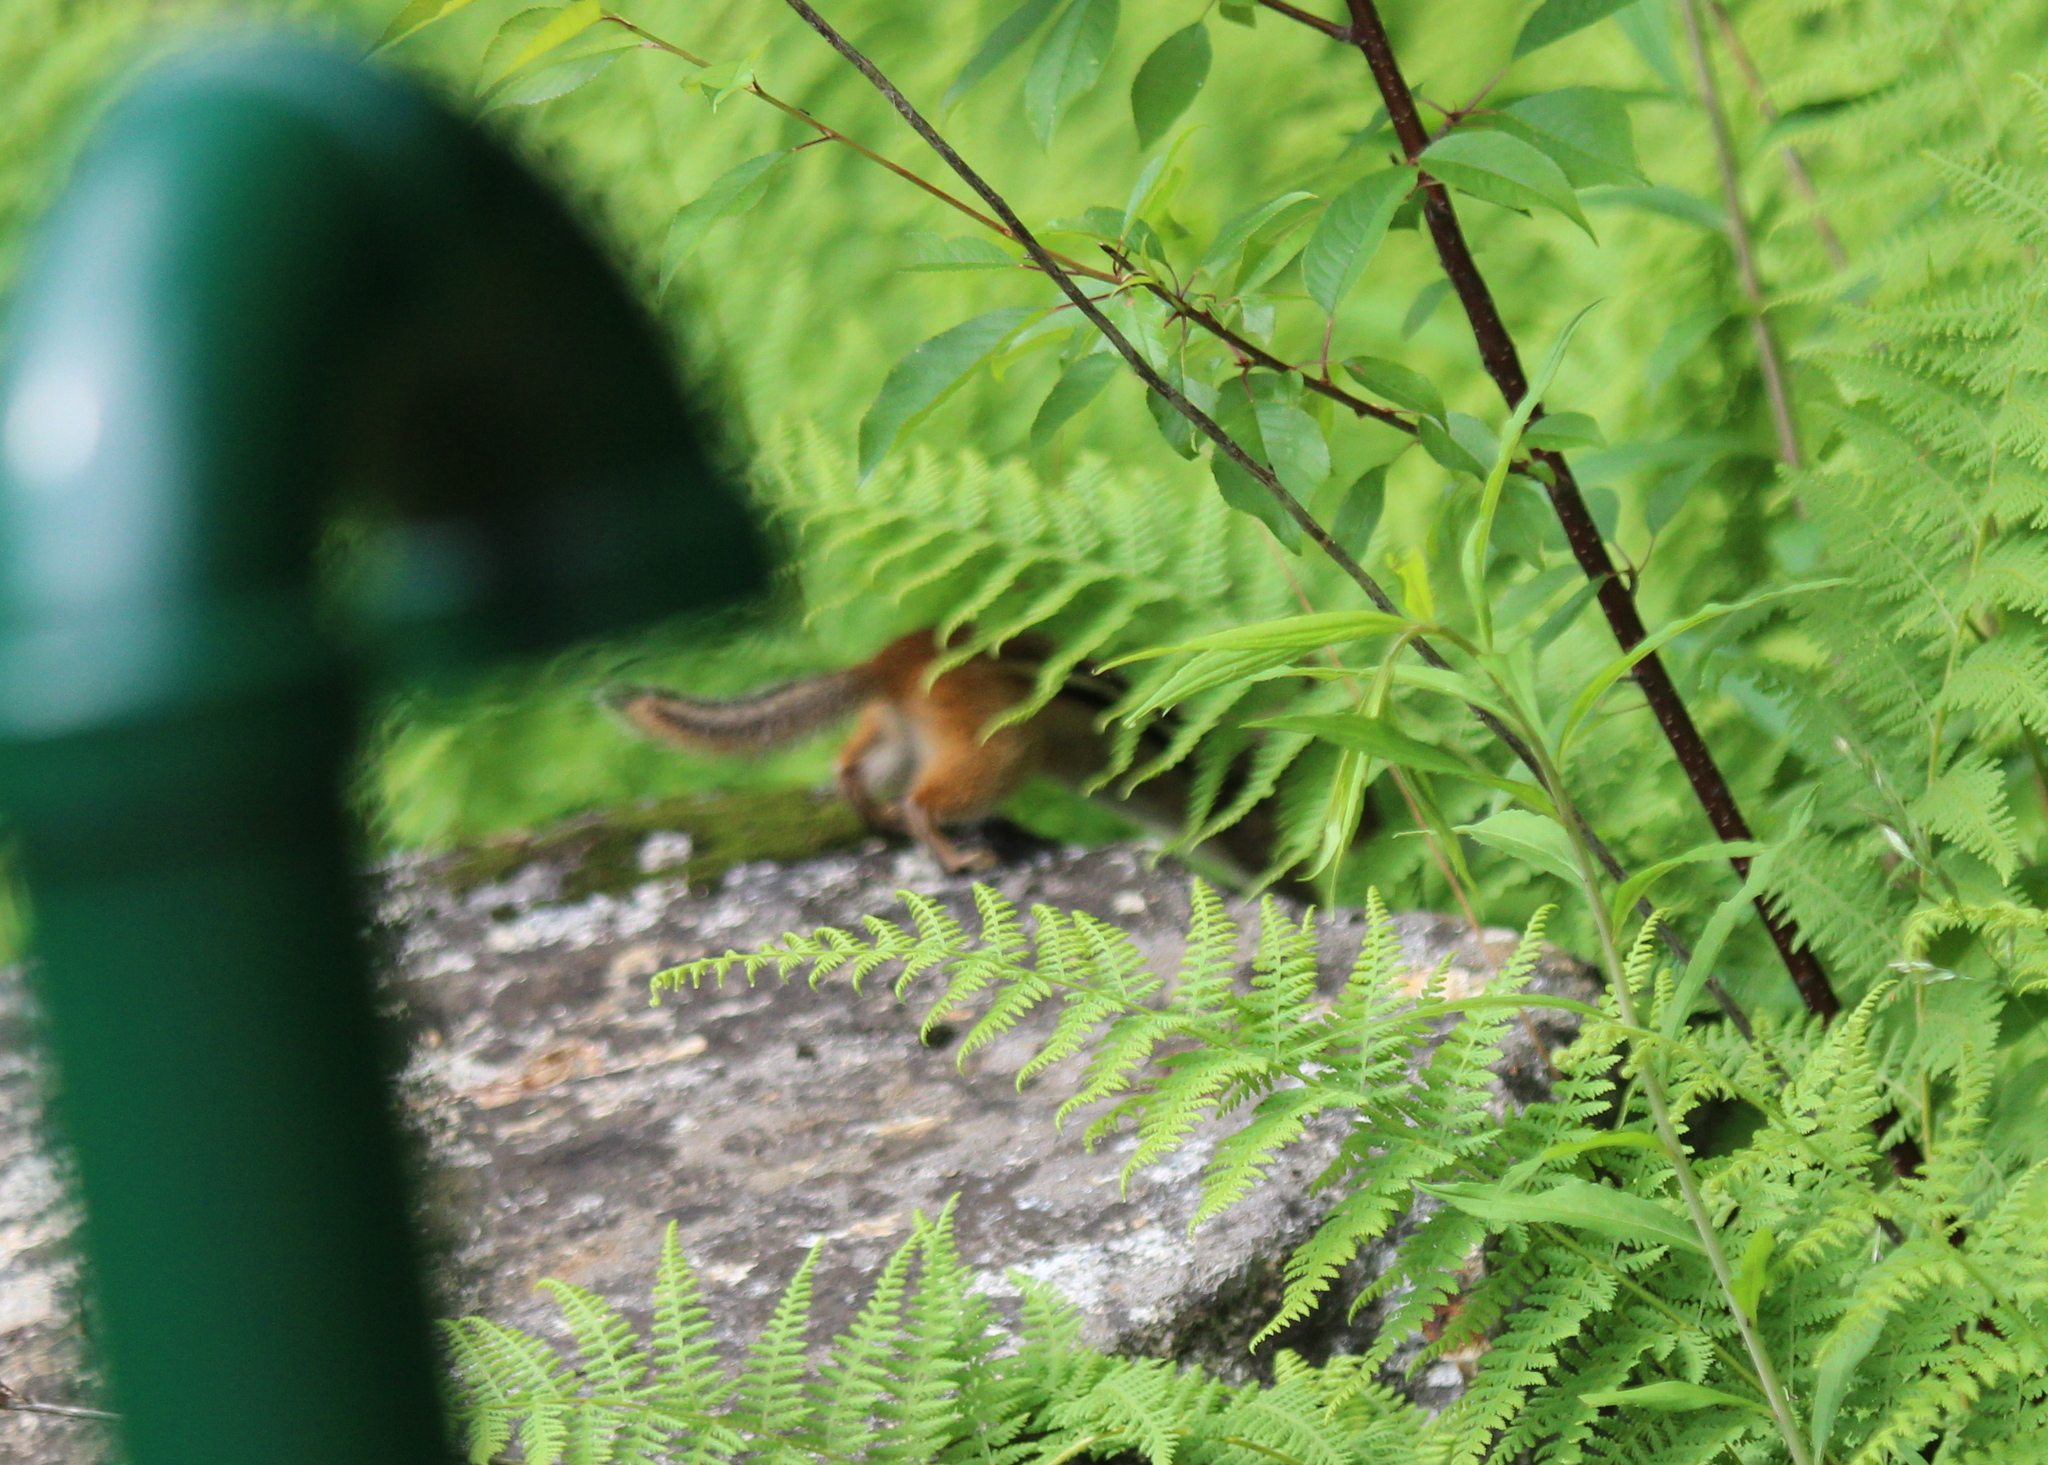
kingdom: Animalia
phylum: Chordata
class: Mammalia
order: Rodentia
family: Sciuridae
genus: Tamias
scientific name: Tamias striatus
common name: Eastern chipmunk
